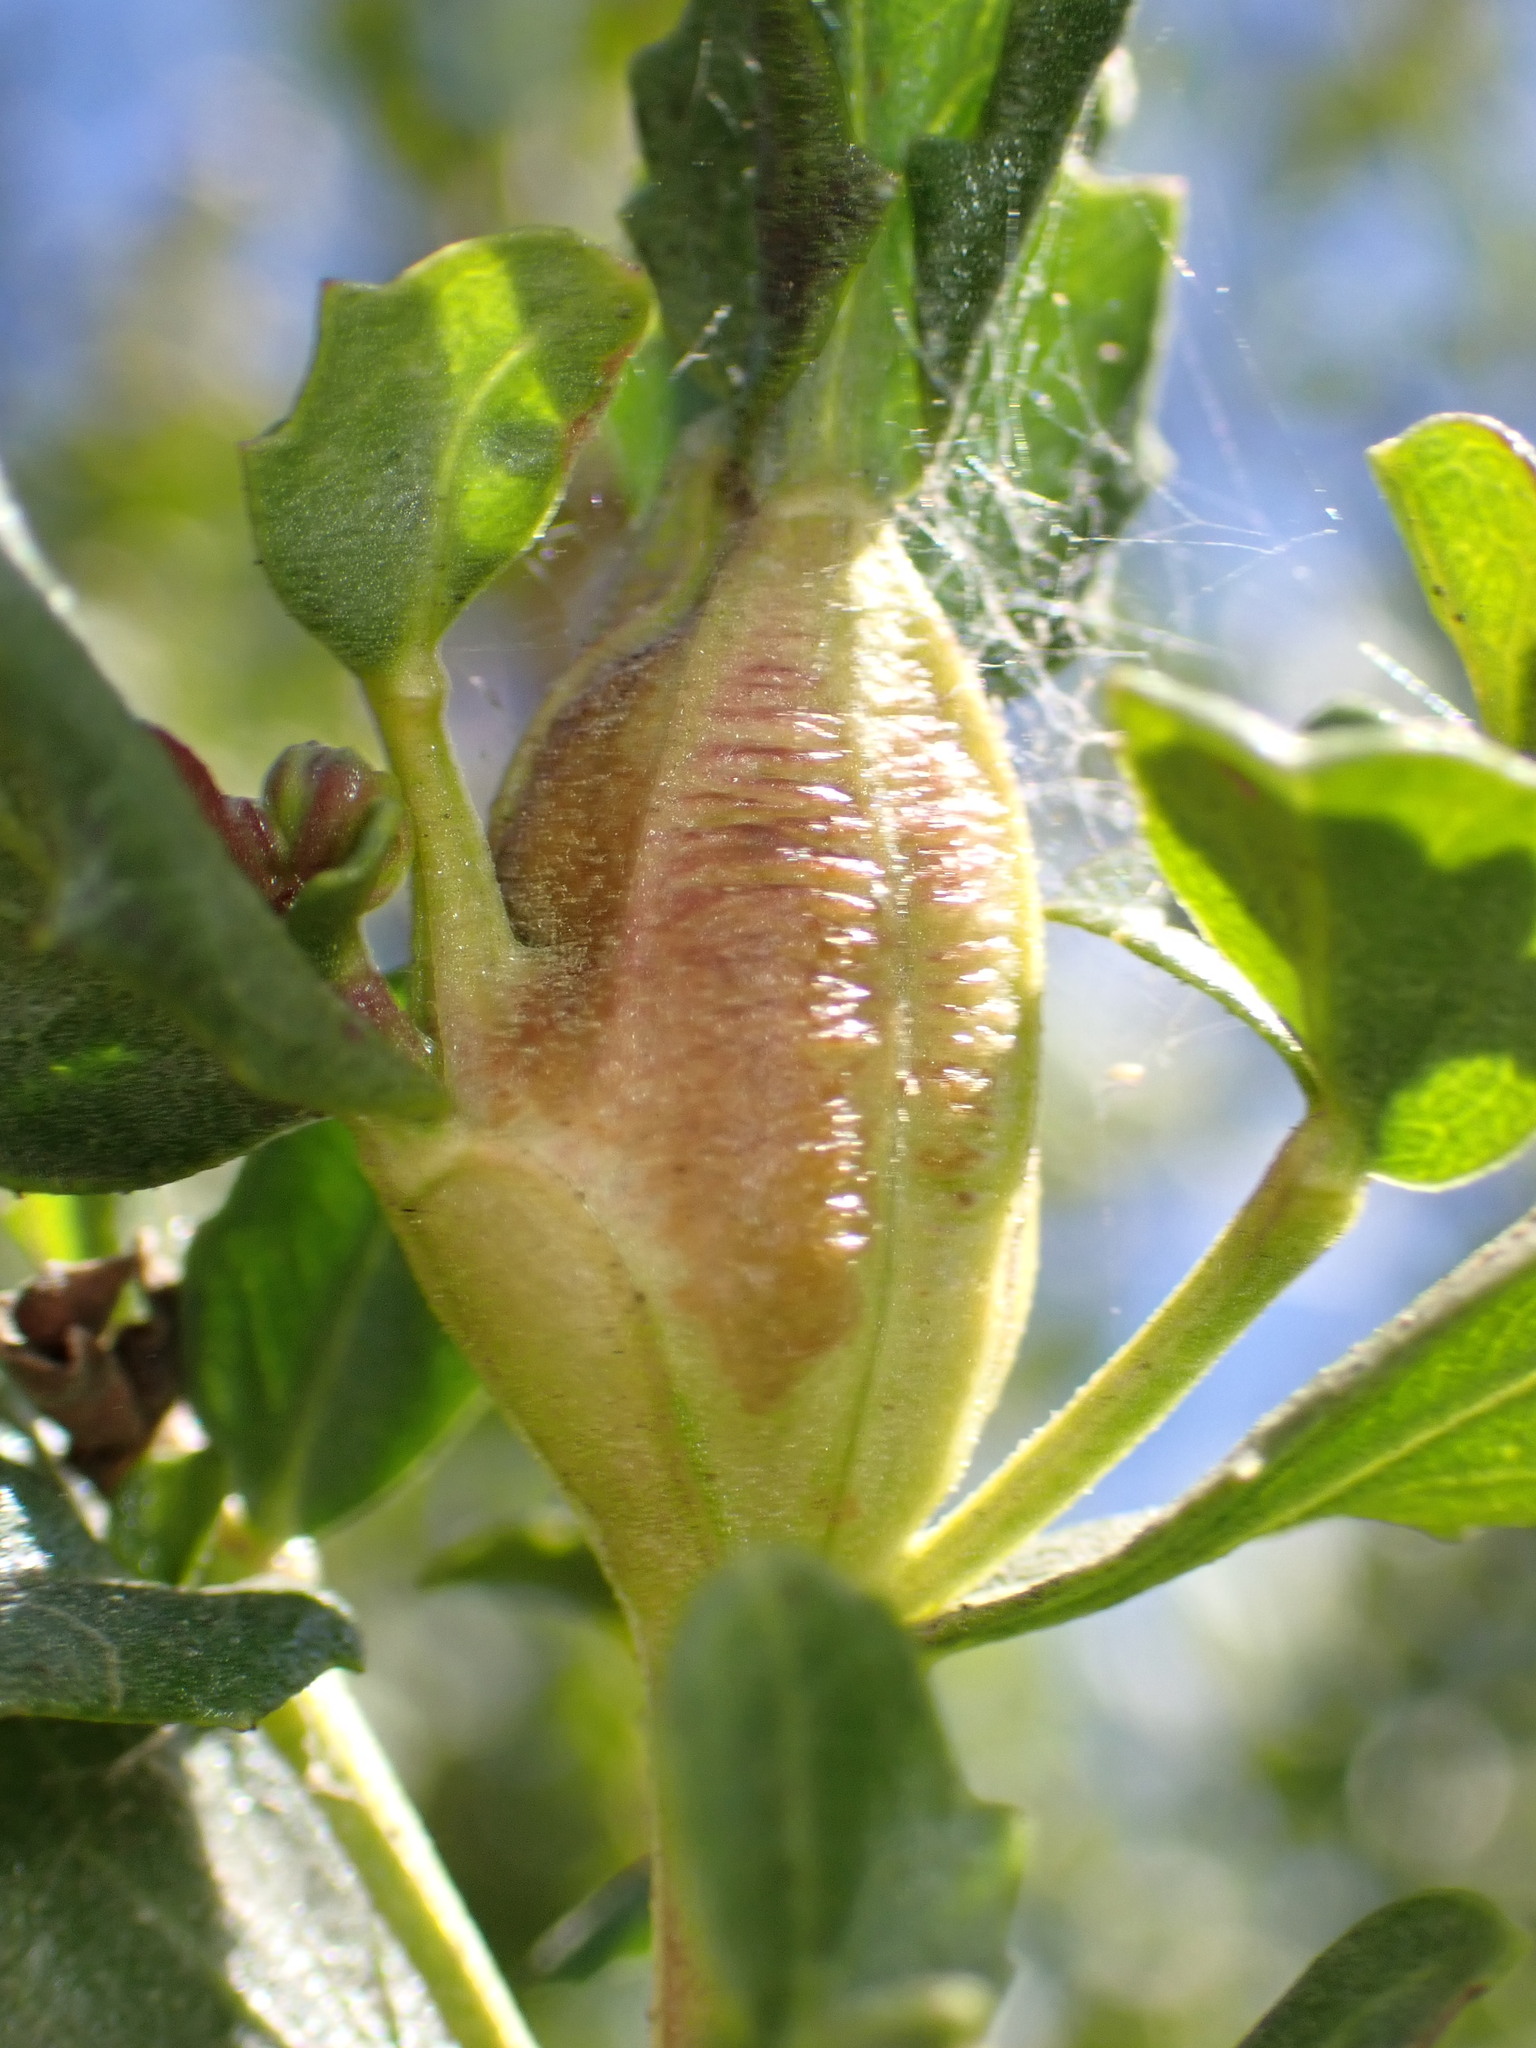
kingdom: Animalia
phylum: Arthropoda
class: Insecta
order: Lepidoptera
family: Gelechiidae
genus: Gnorimoschema
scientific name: Gnorimoschema baccharisella
